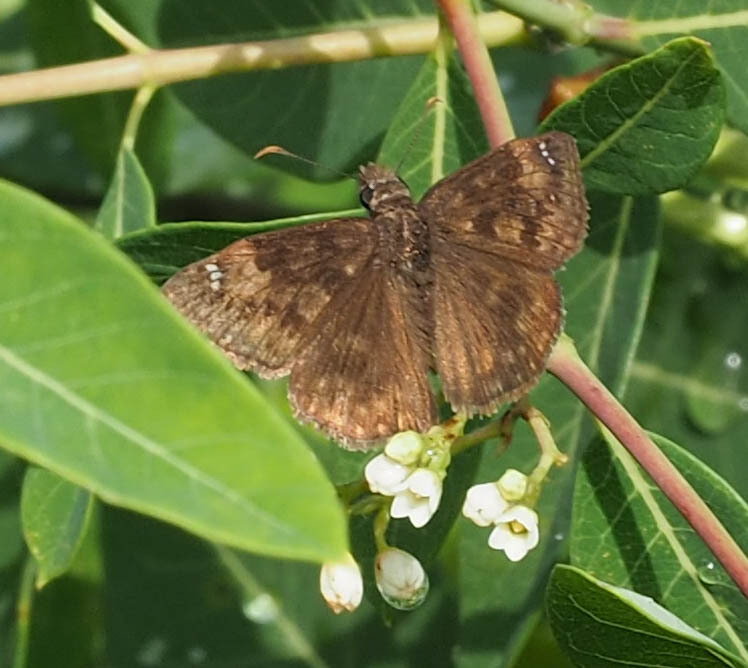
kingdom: Animalia
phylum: Arthropoda
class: Insecta
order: Lepidoptera
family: Hesperiidae
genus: Erynnis
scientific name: Erynnis baptisiae
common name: Wild indigo duskywing
